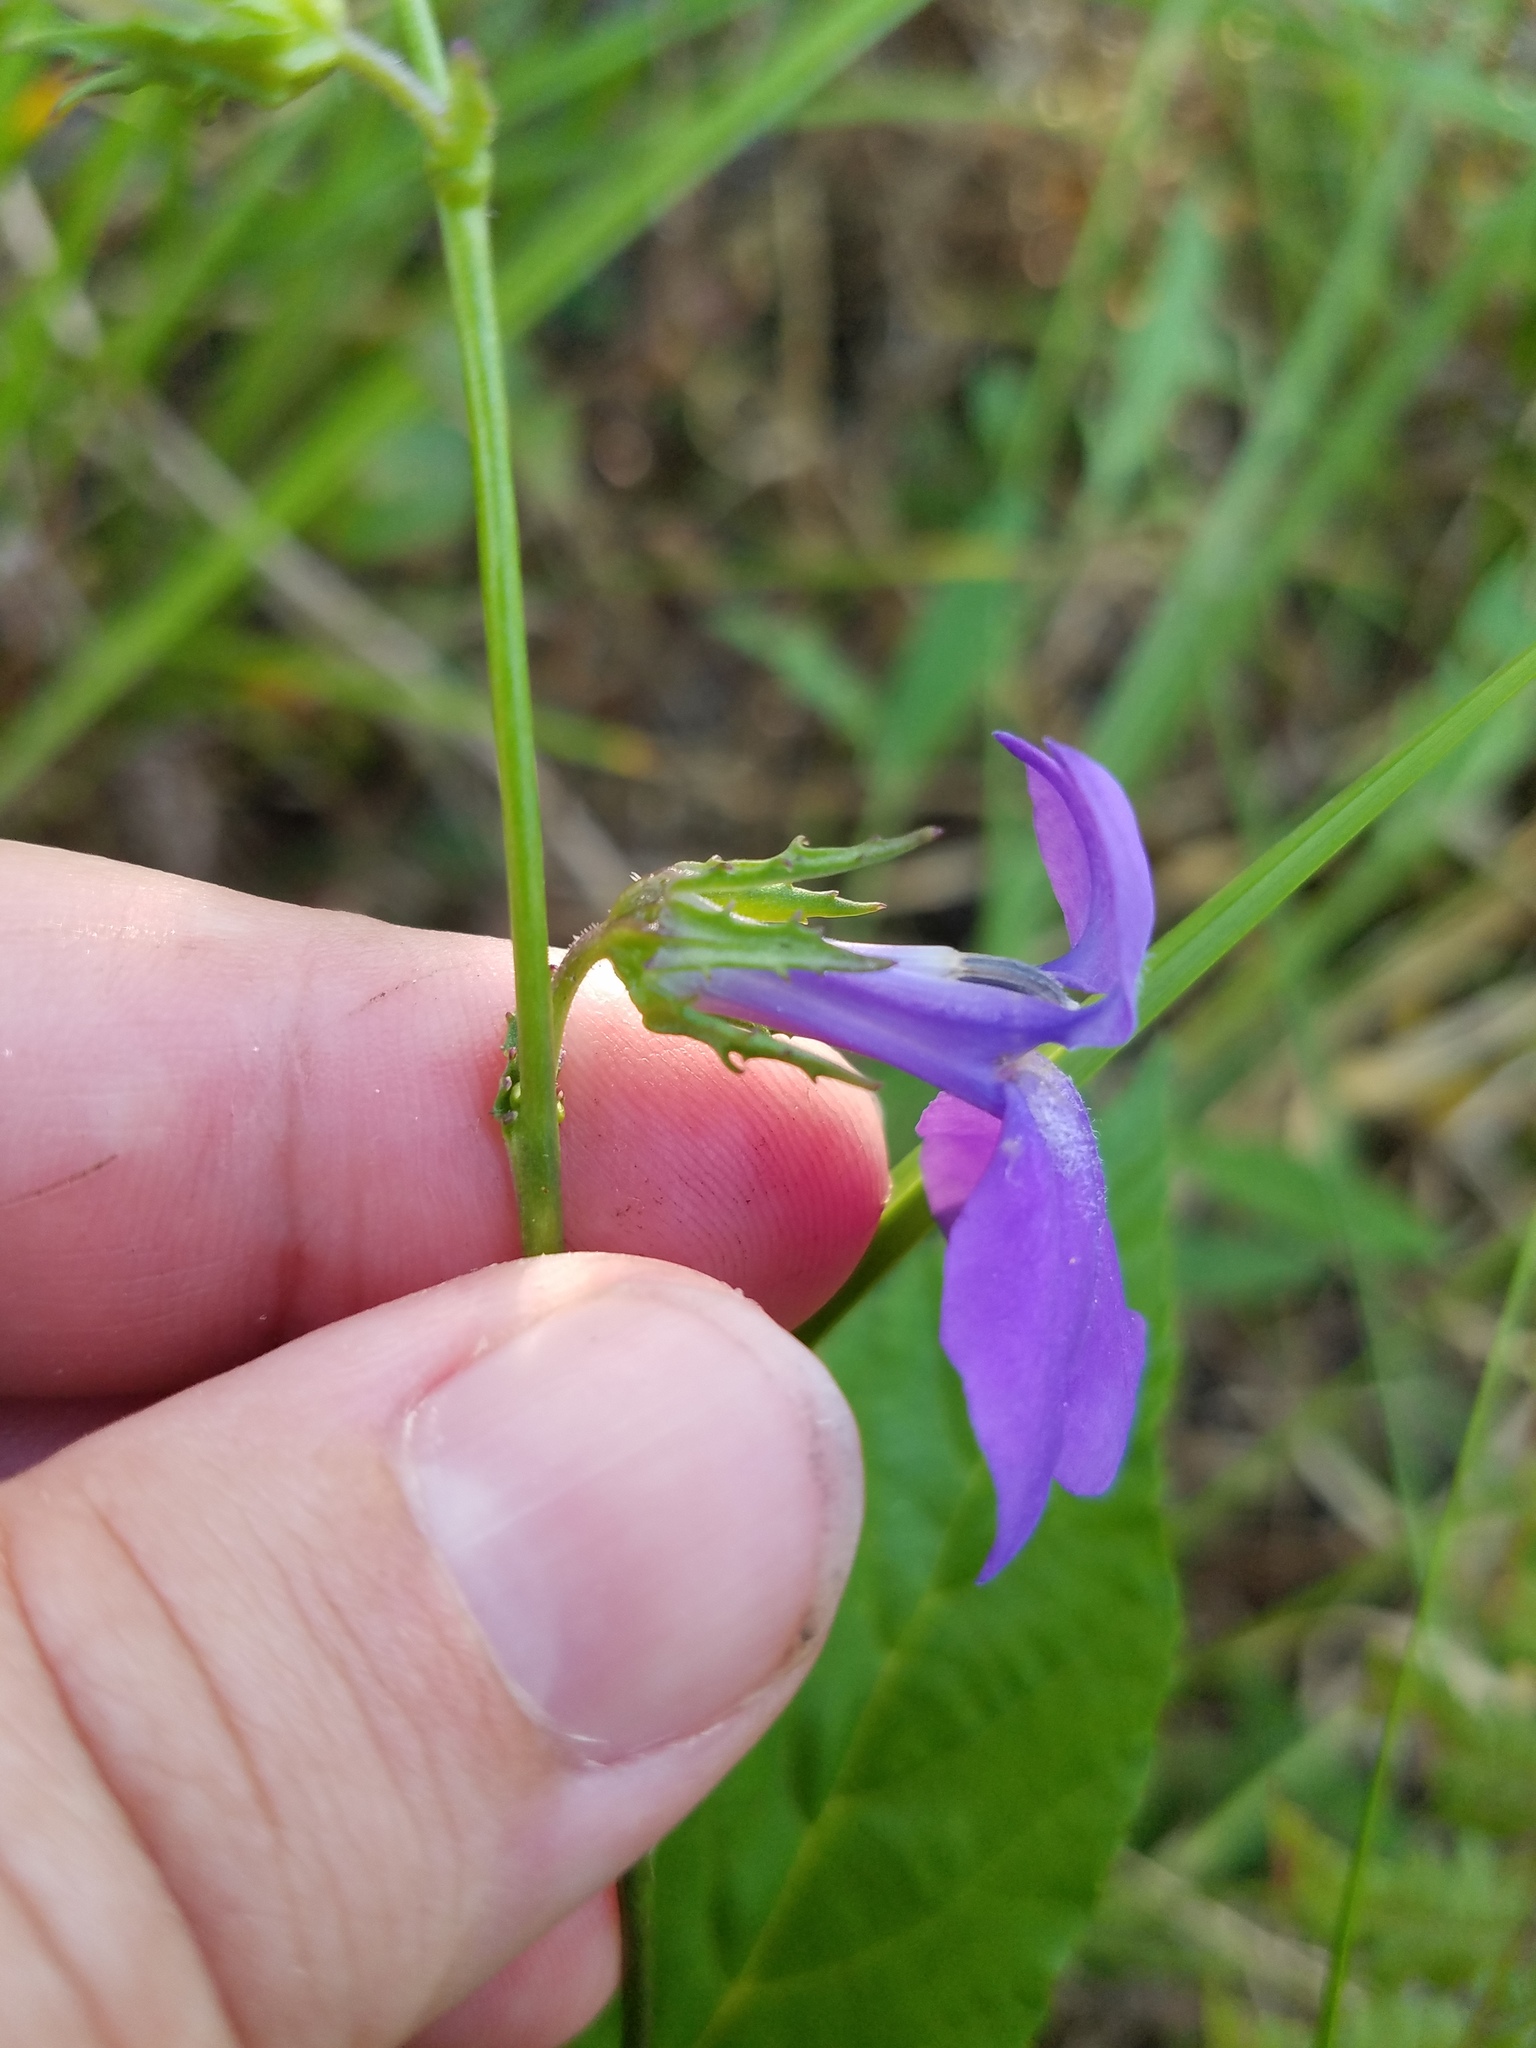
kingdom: Plantae
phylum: Tracheophyta
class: Magnoliopsida
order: Asterales
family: Campanulaceae
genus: Lobelia
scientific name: Lobelia glandulosa
